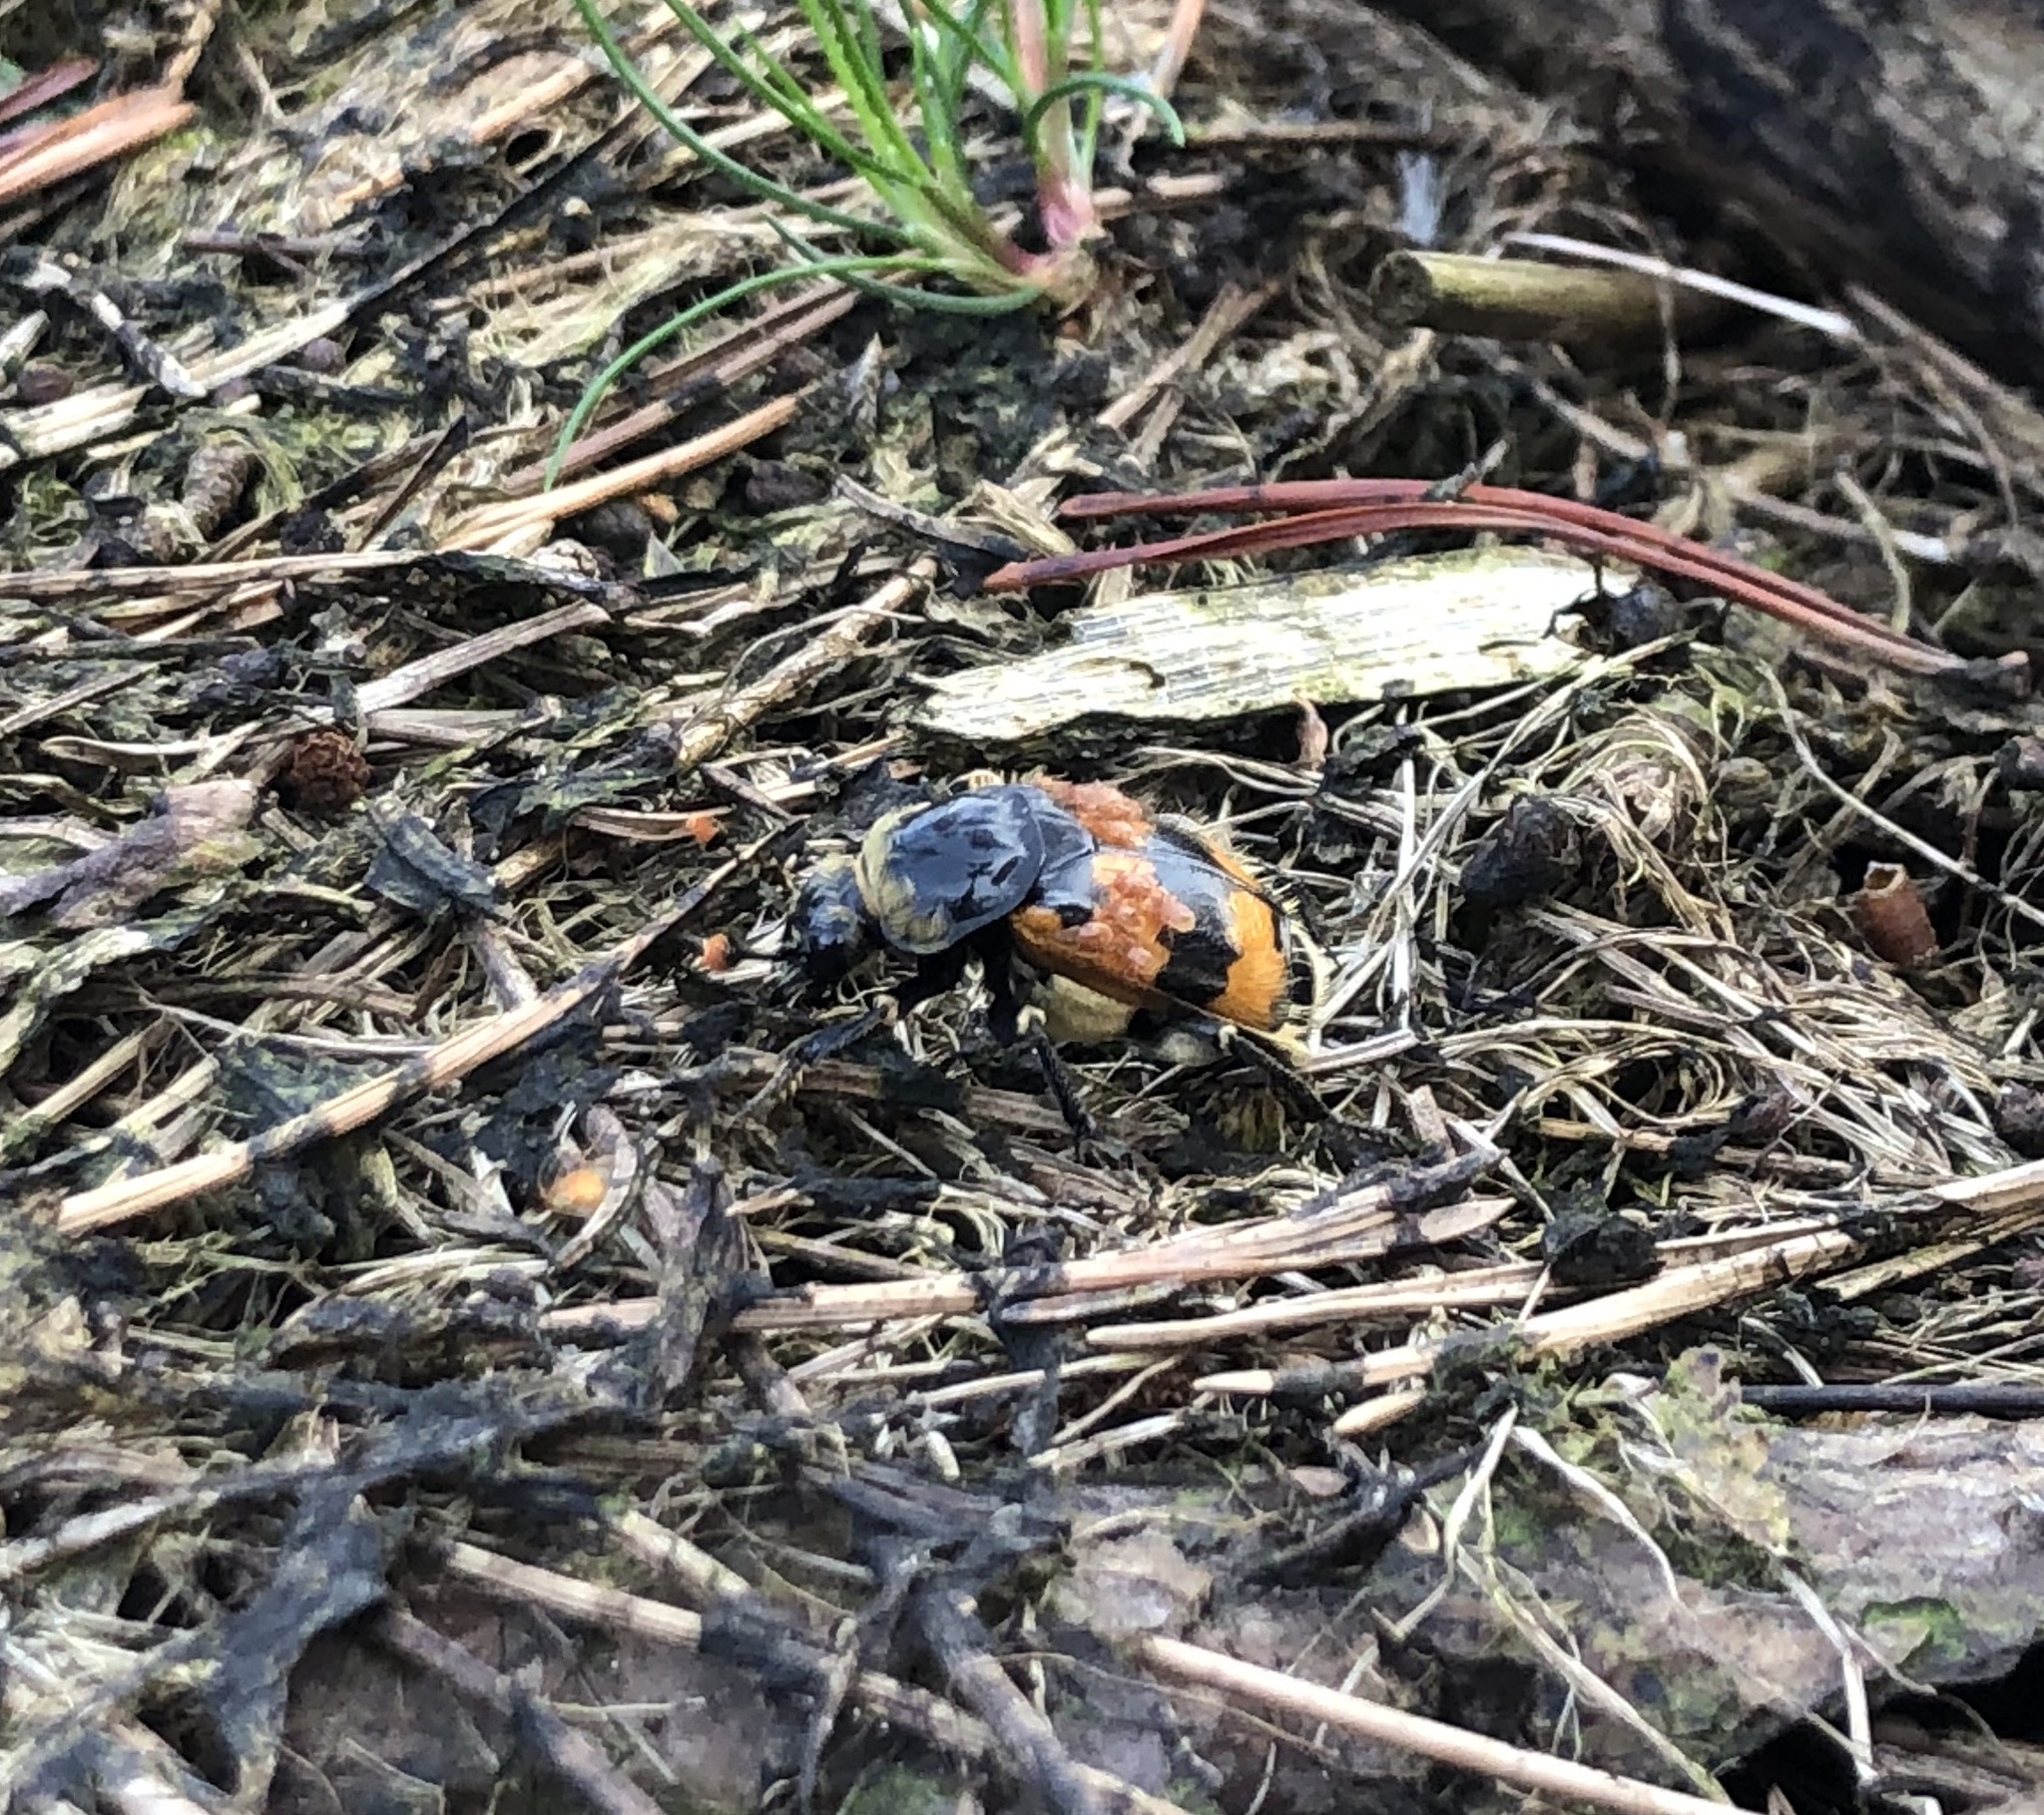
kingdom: Animalia
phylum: Arthropoda
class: Insecta
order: Coleoptera
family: Staphylinidae
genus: Nicrophorus
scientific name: Nicrophorus vespillo
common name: Common burying beetle
